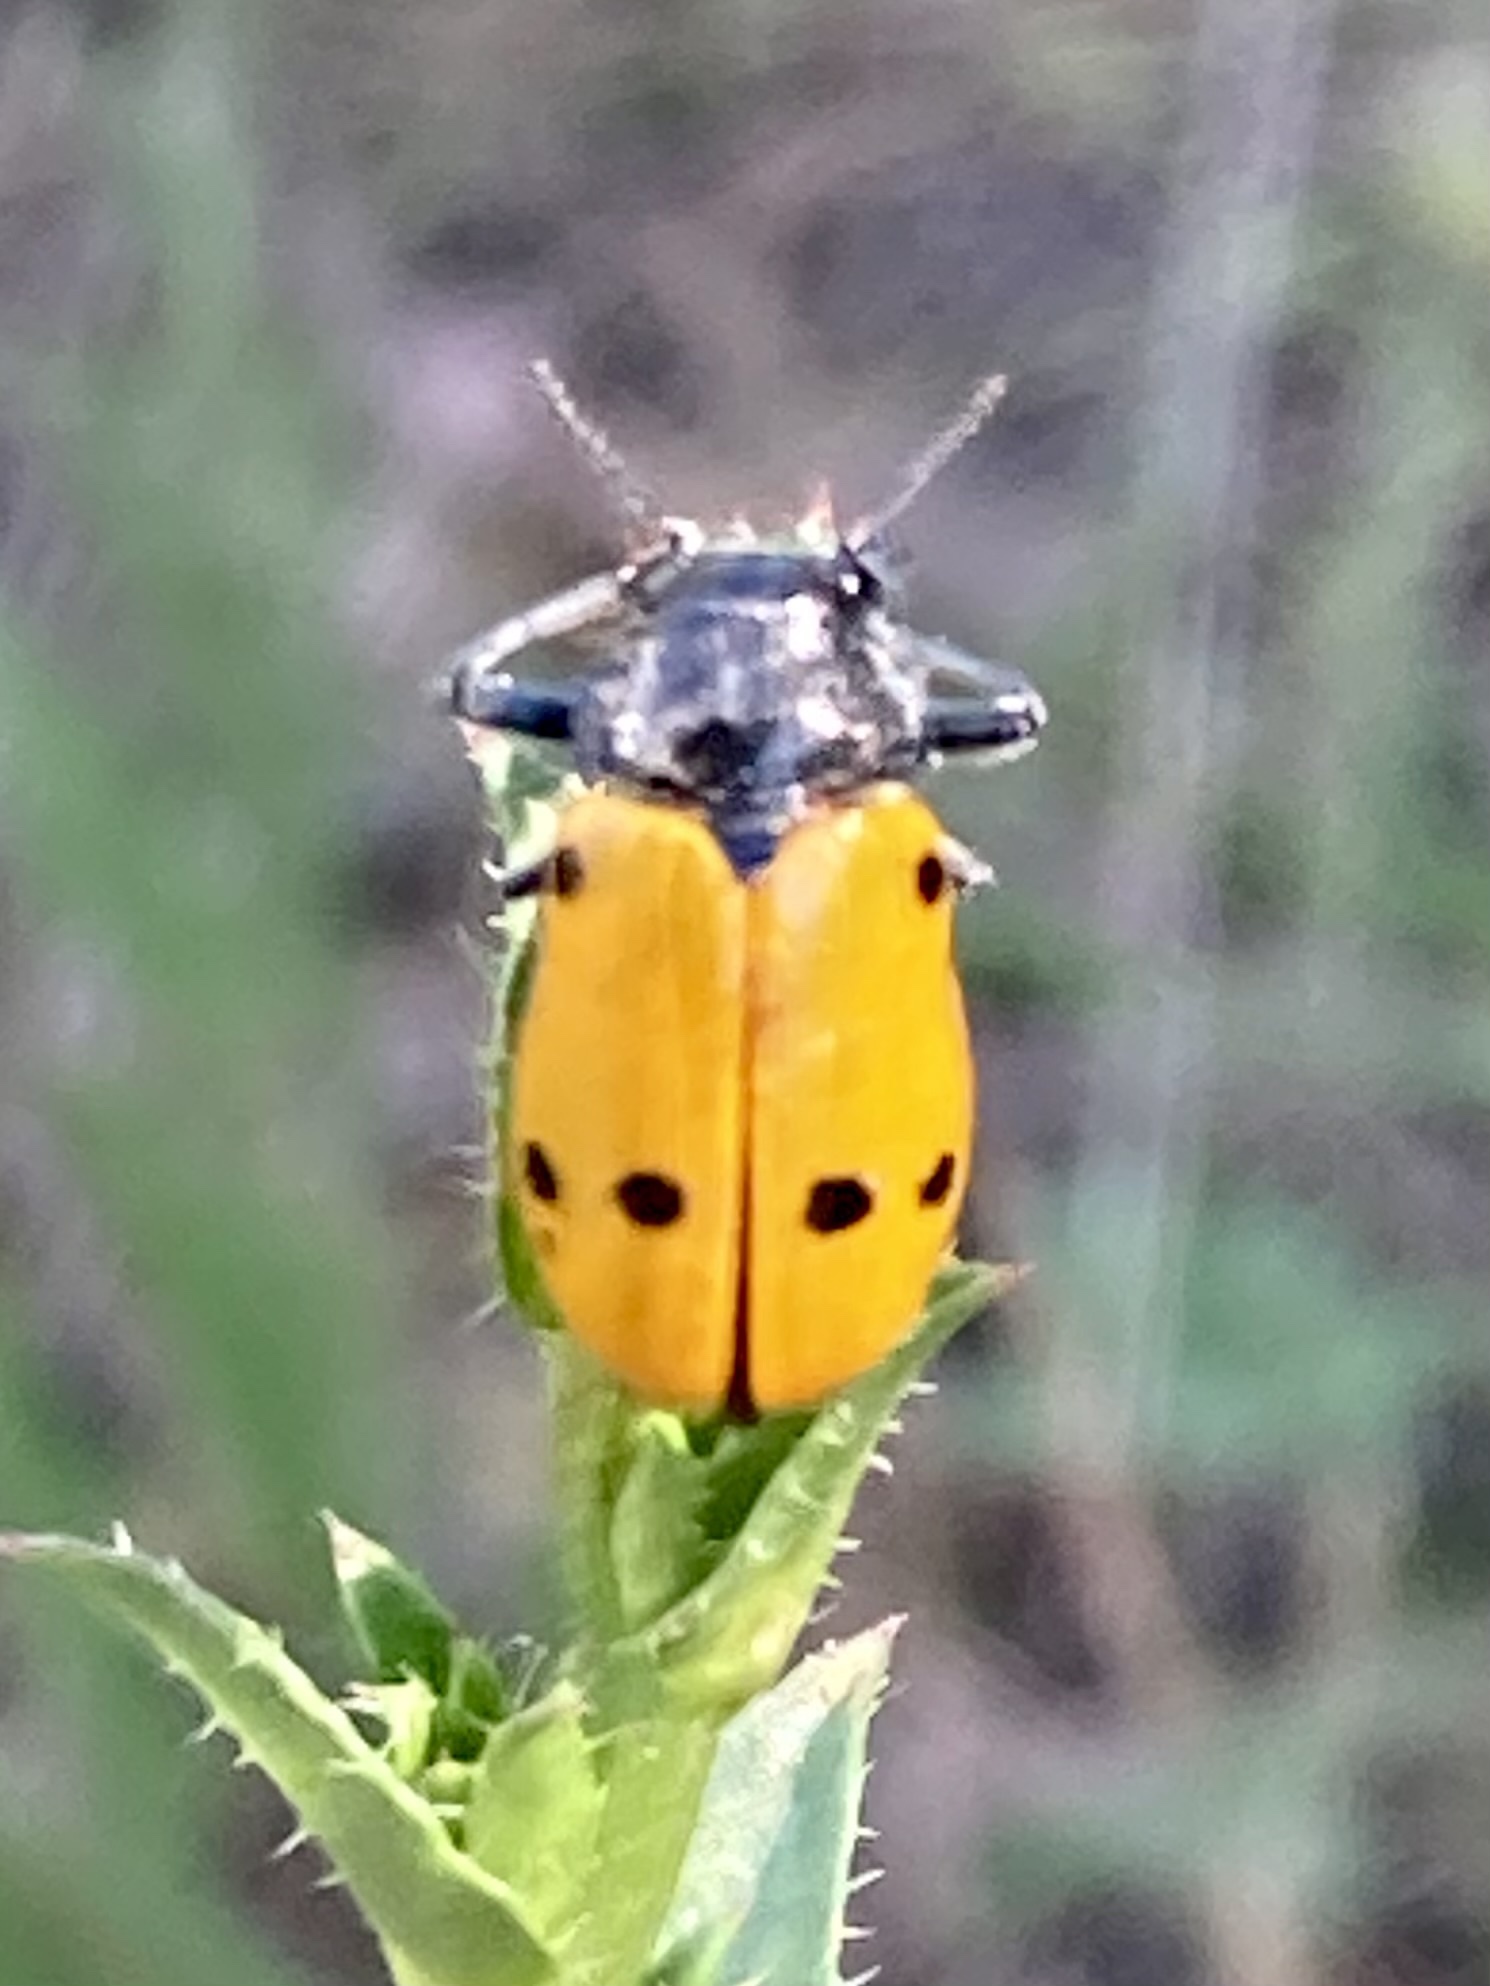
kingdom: Animalia
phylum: Arthropoda
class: Insecta
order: Coleoptera
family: Chrysomelidae
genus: Lachnaia
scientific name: Lachnaia italica
